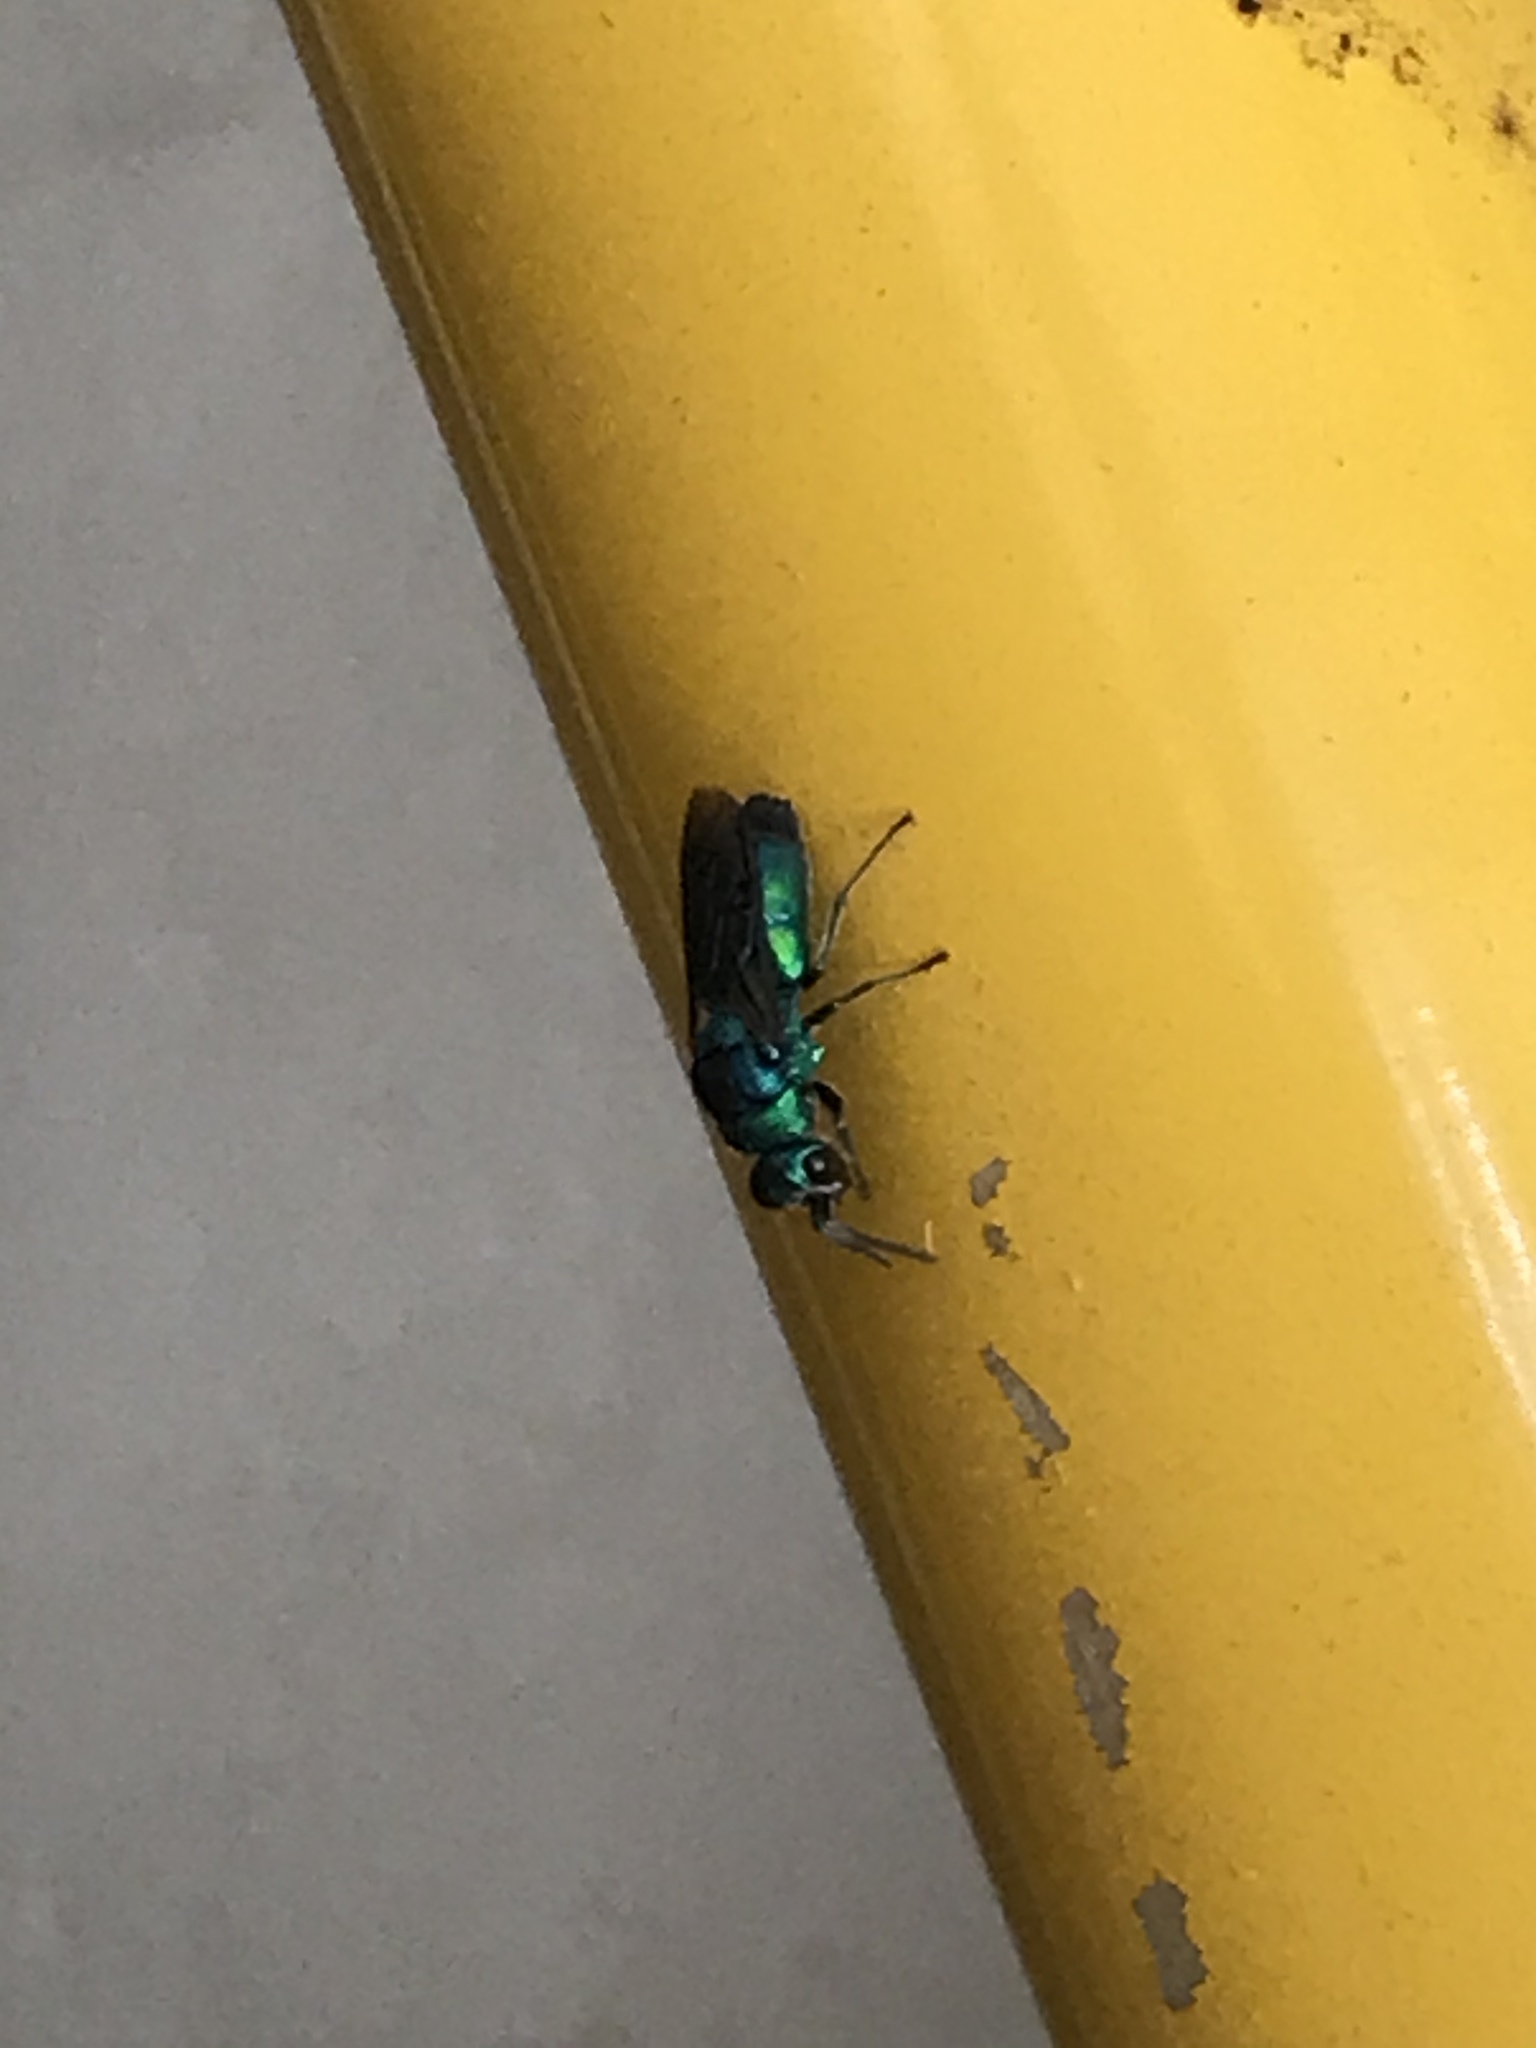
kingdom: Animalia
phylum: Arthropoda
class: Insecta
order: Hymenoptera
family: Chrysididae
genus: Chrysis
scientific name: Chrysis angolensis
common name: Cuckoo wasp
